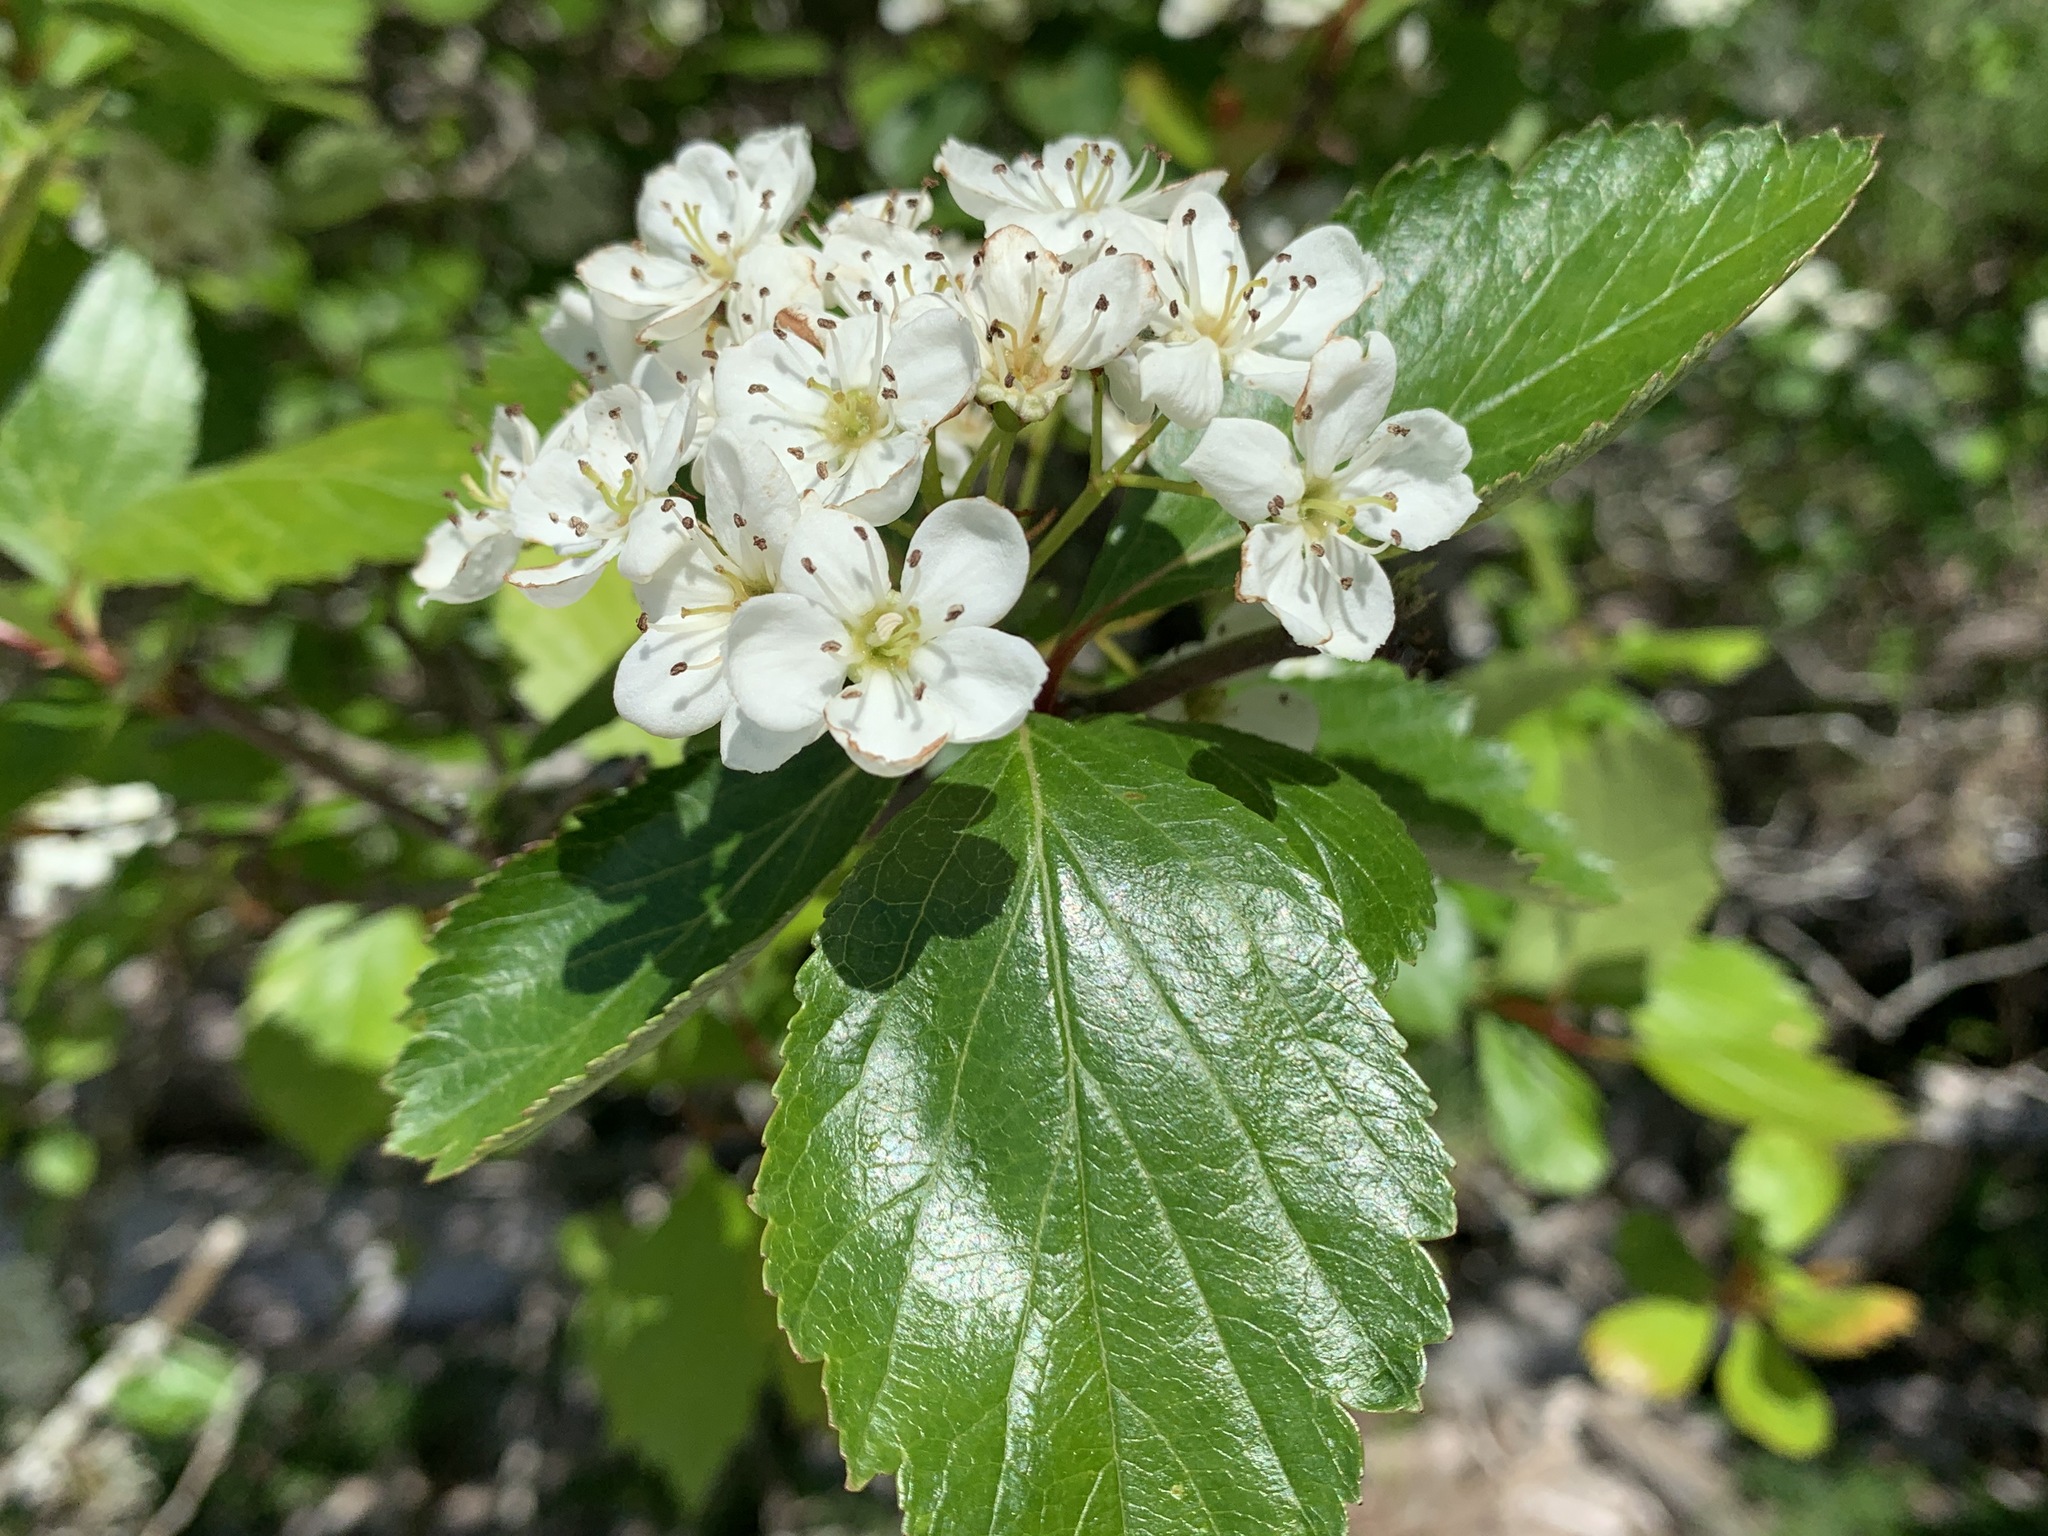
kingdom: Plantae
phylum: Tracheophyta
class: Magnoliopsida
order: Rosales
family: Rosaceae
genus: Crataegus
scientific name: Crataegus douglasii
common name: Black hawthorn
